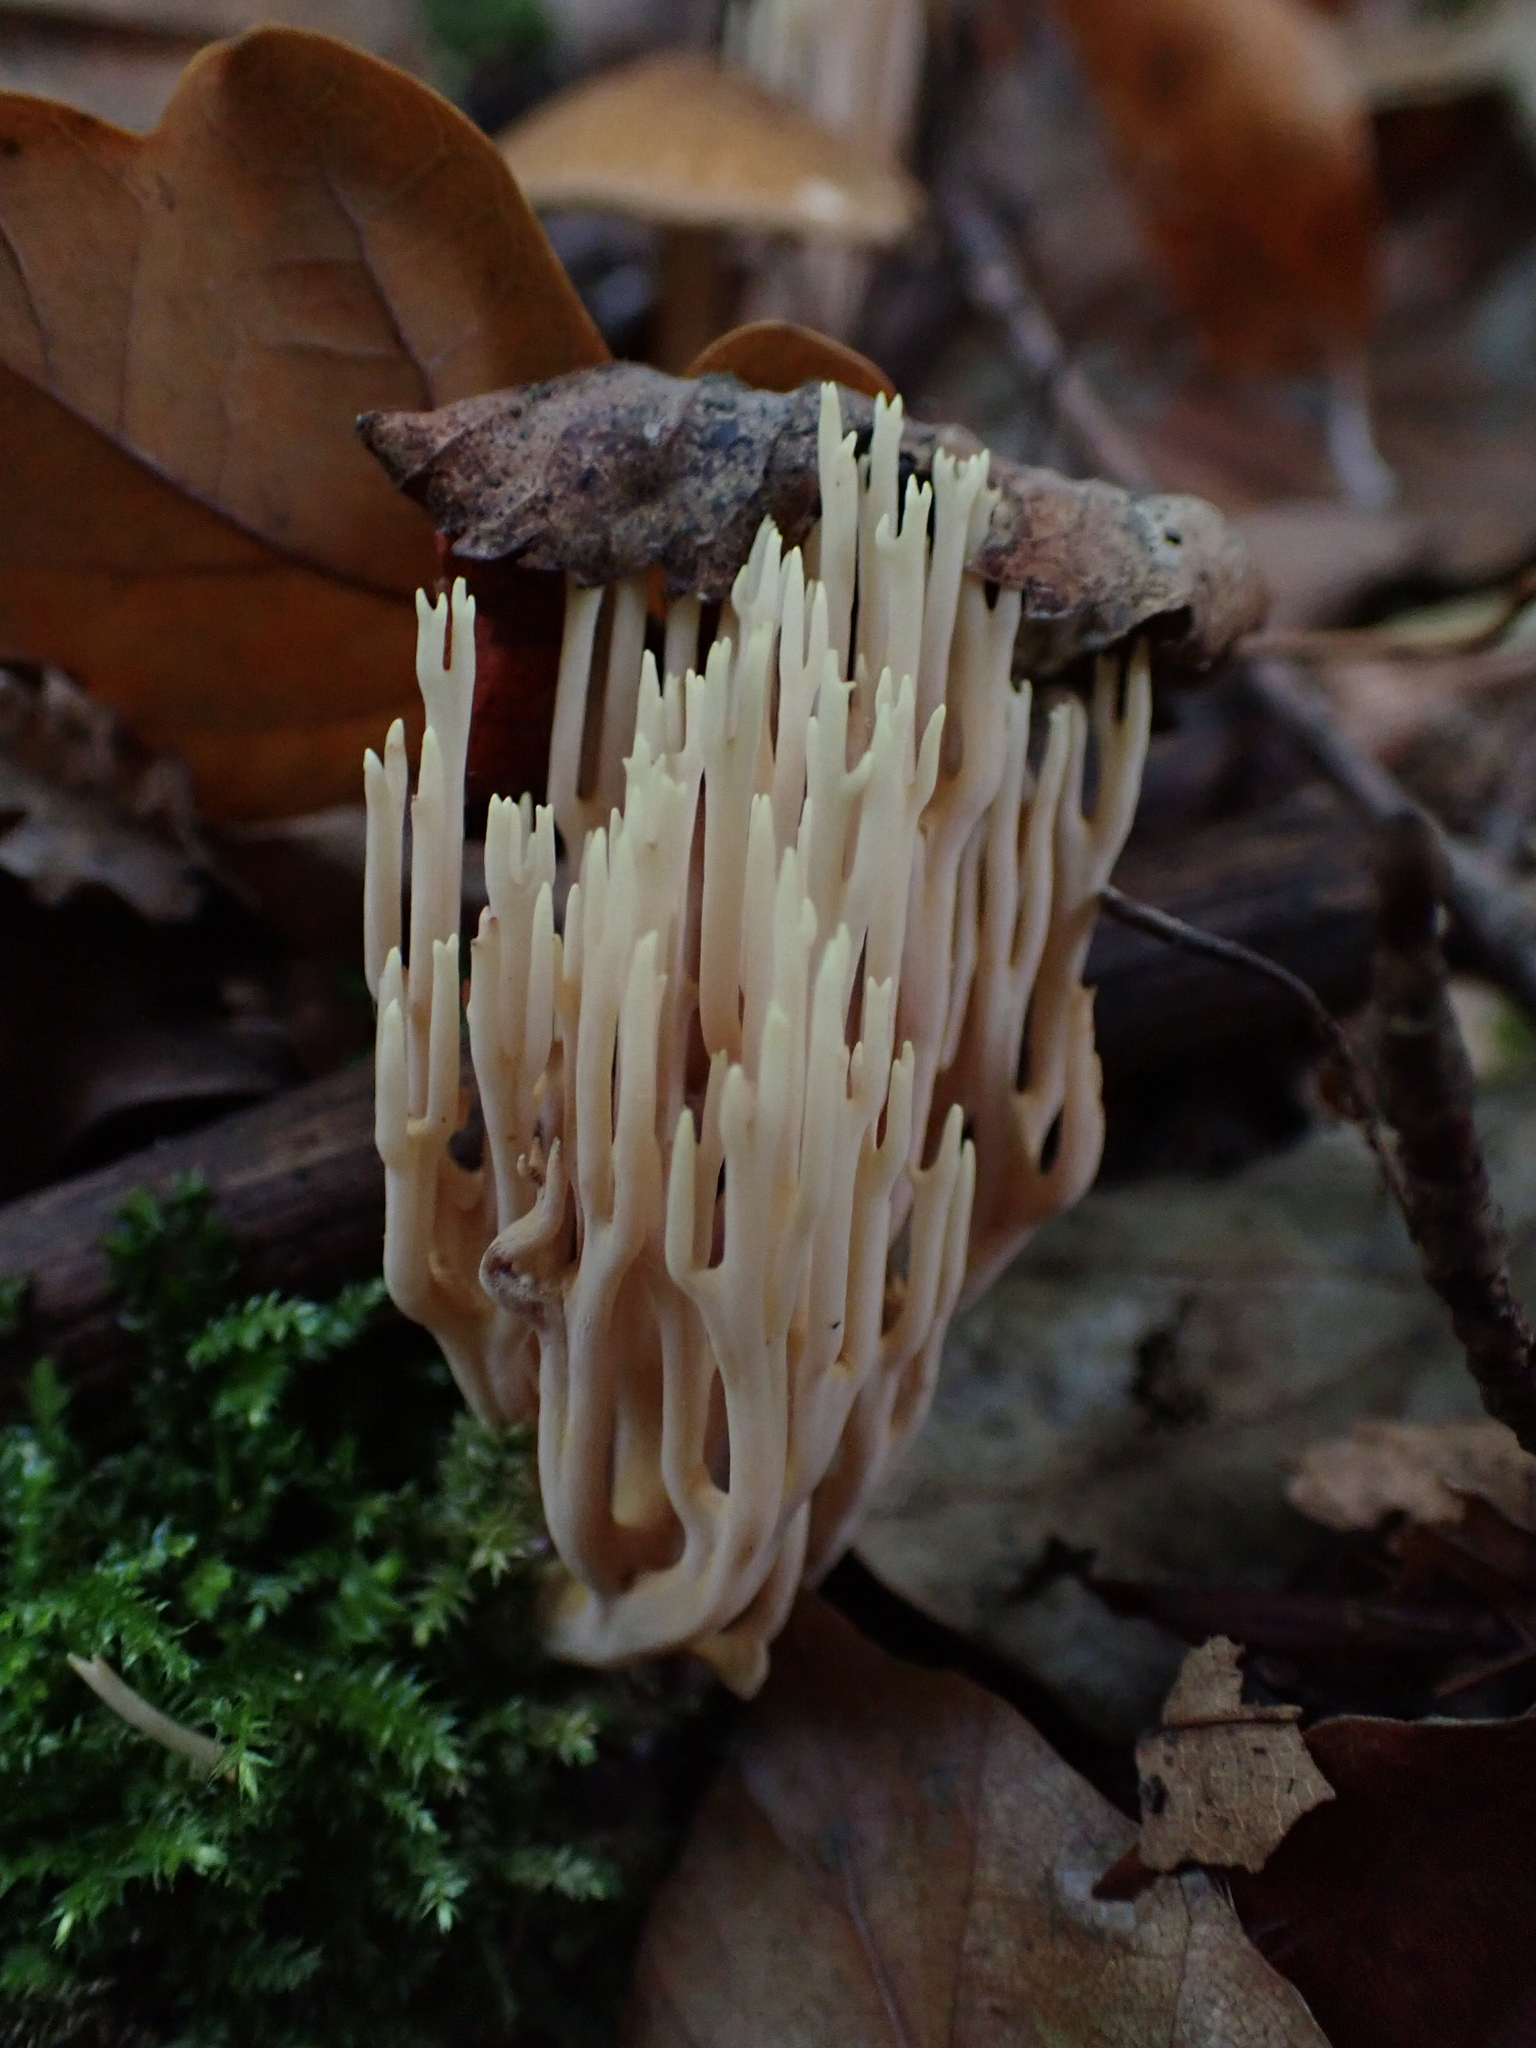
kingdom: Fungi
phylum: Basidiomycota
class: Agaricomycetes
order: Gomphales
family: Gomphaceae
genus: Ramaria
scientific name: Ramaria stricta
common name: Upright coral
